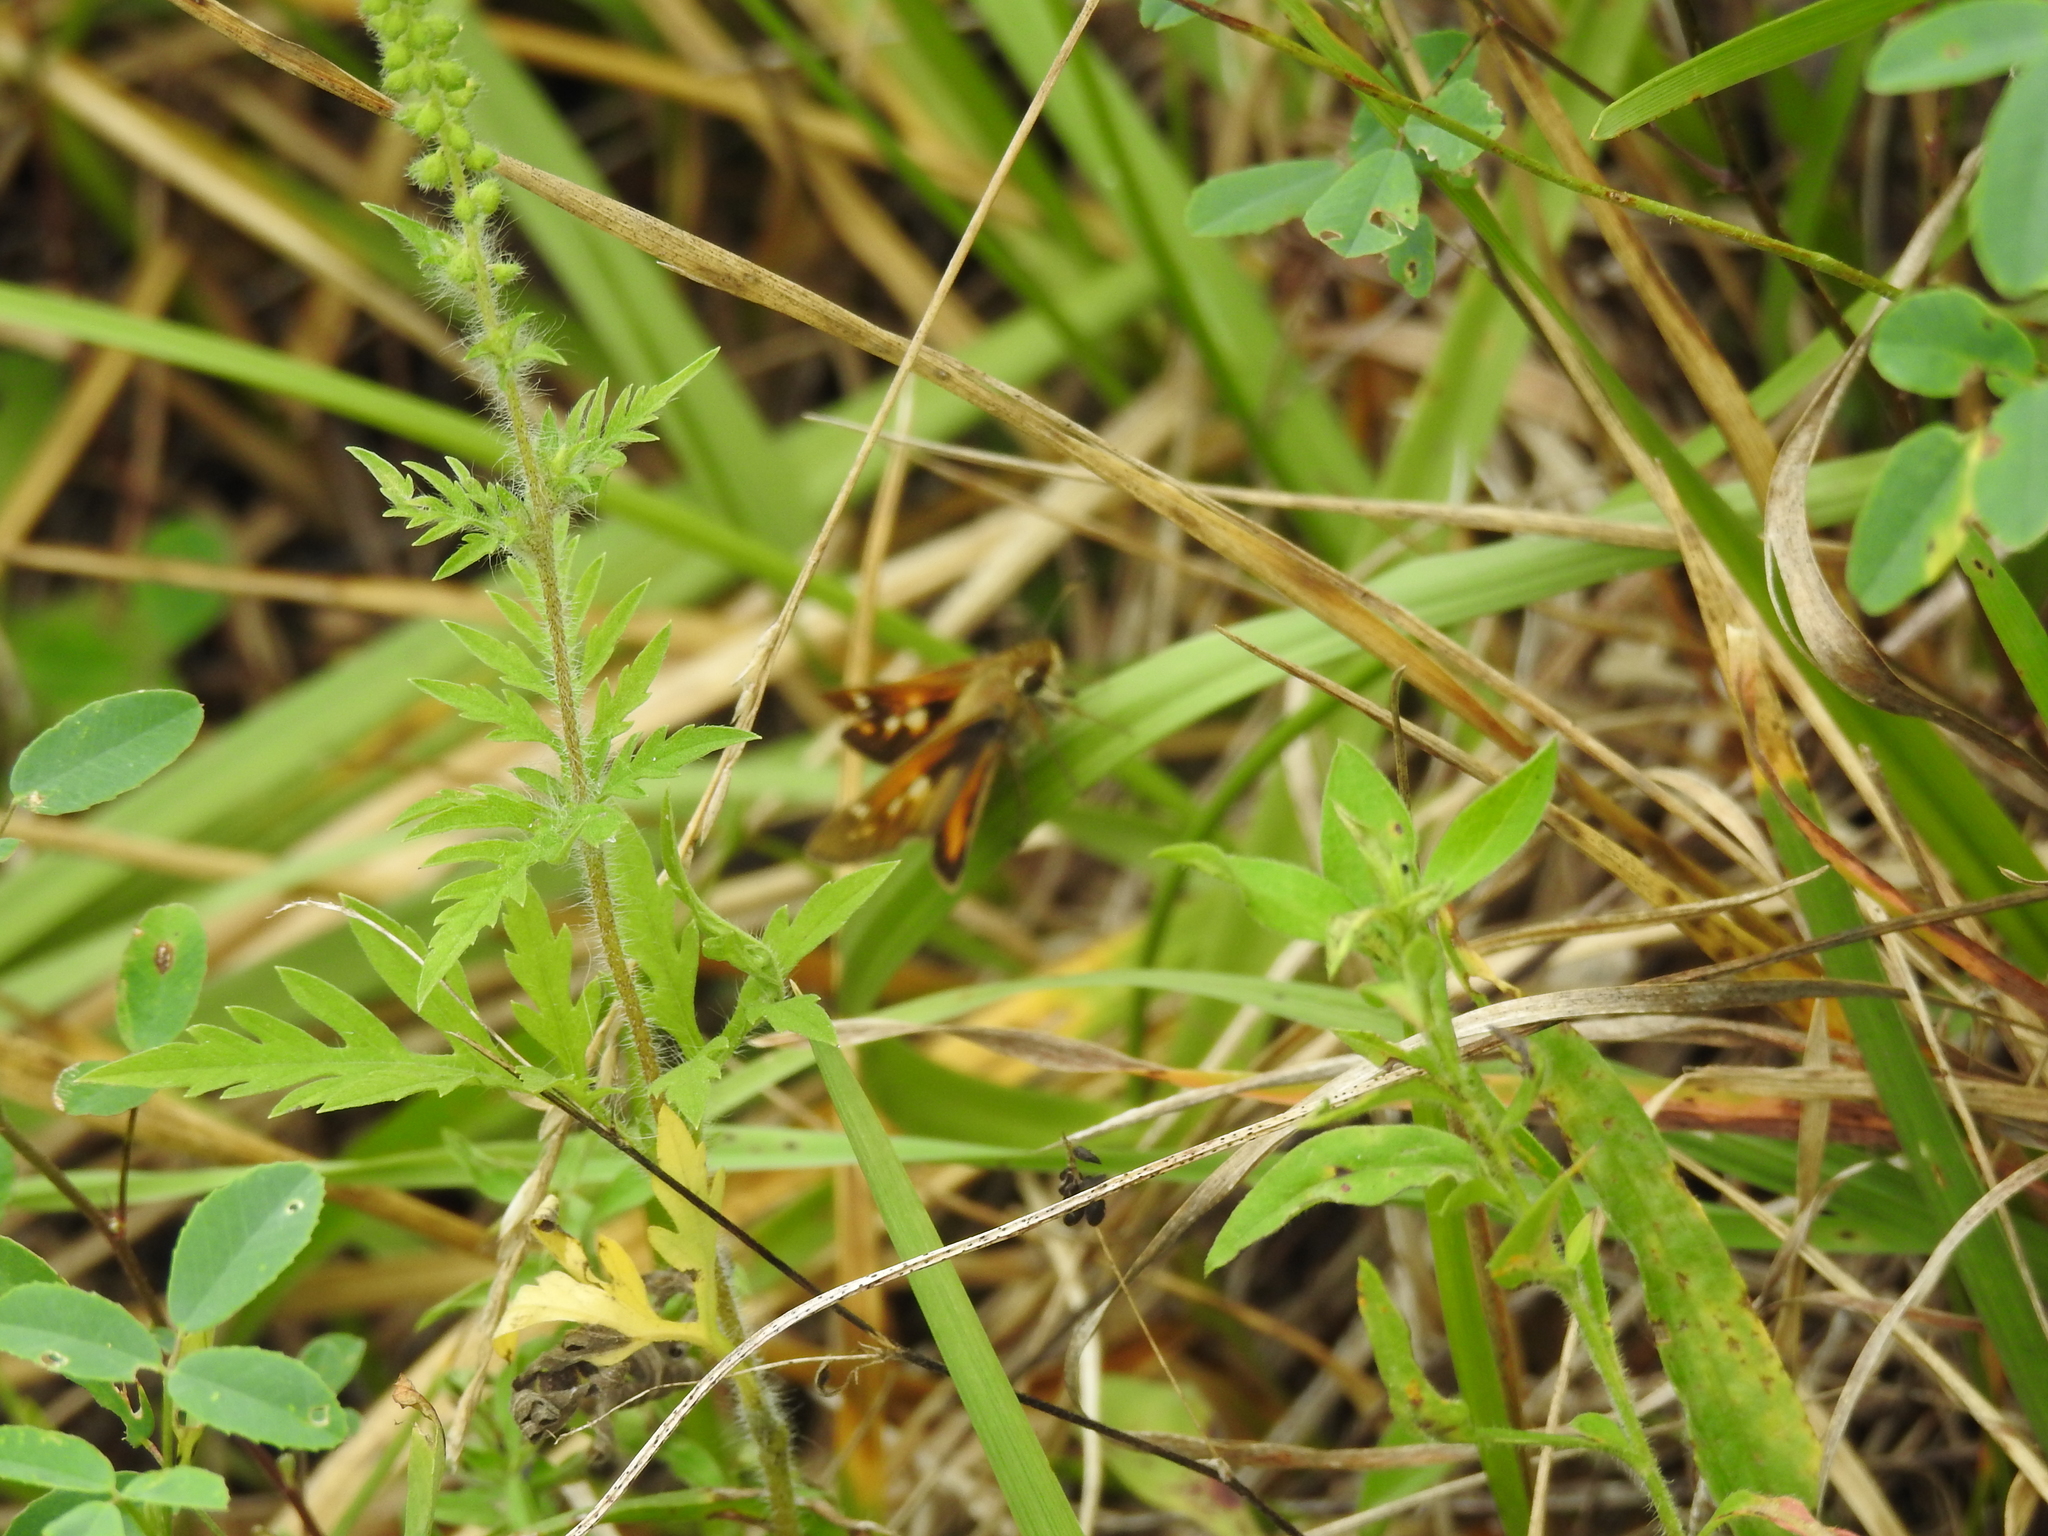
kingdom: Animalia
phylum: Arthropoda
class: Insecta
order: Lepidoptera
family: Hesperiidae
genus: Atalopedes
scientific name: Atalopedes
